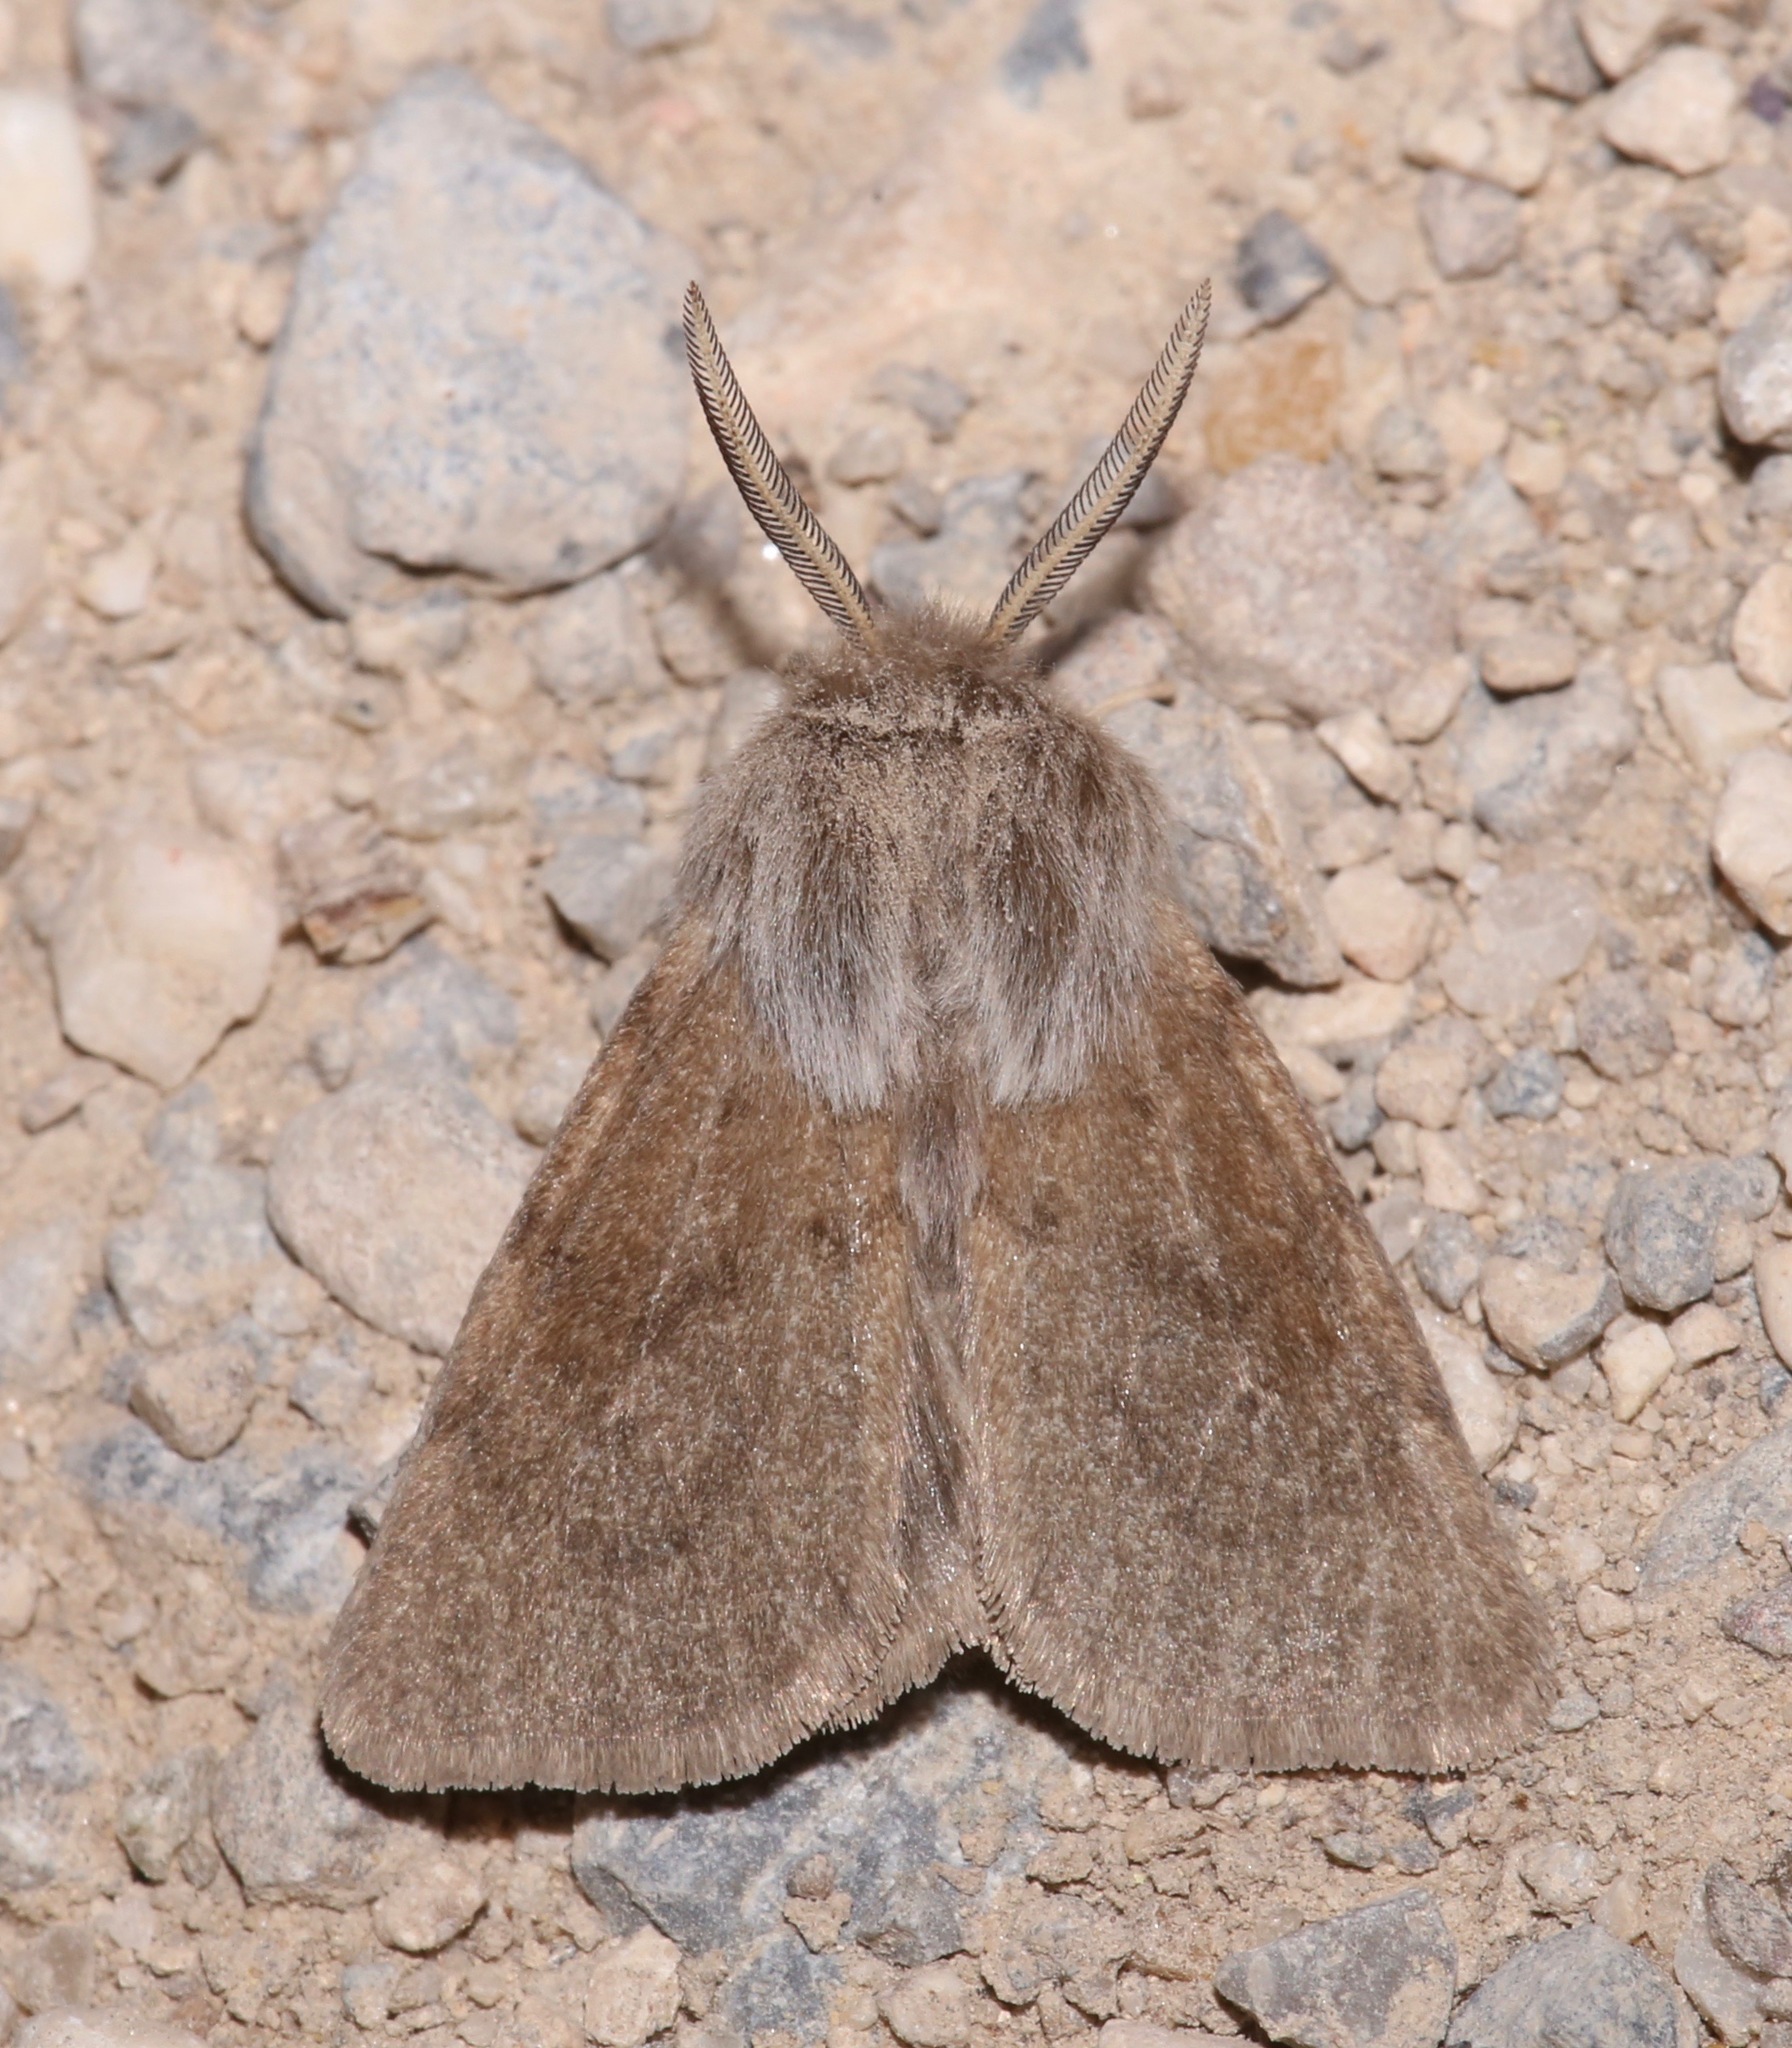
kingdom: Animalia
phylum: Arthropoda
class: Insecta
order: Lepidoptera
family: Erebidae
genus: Spilosoma
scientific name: Spilosoma vagans
